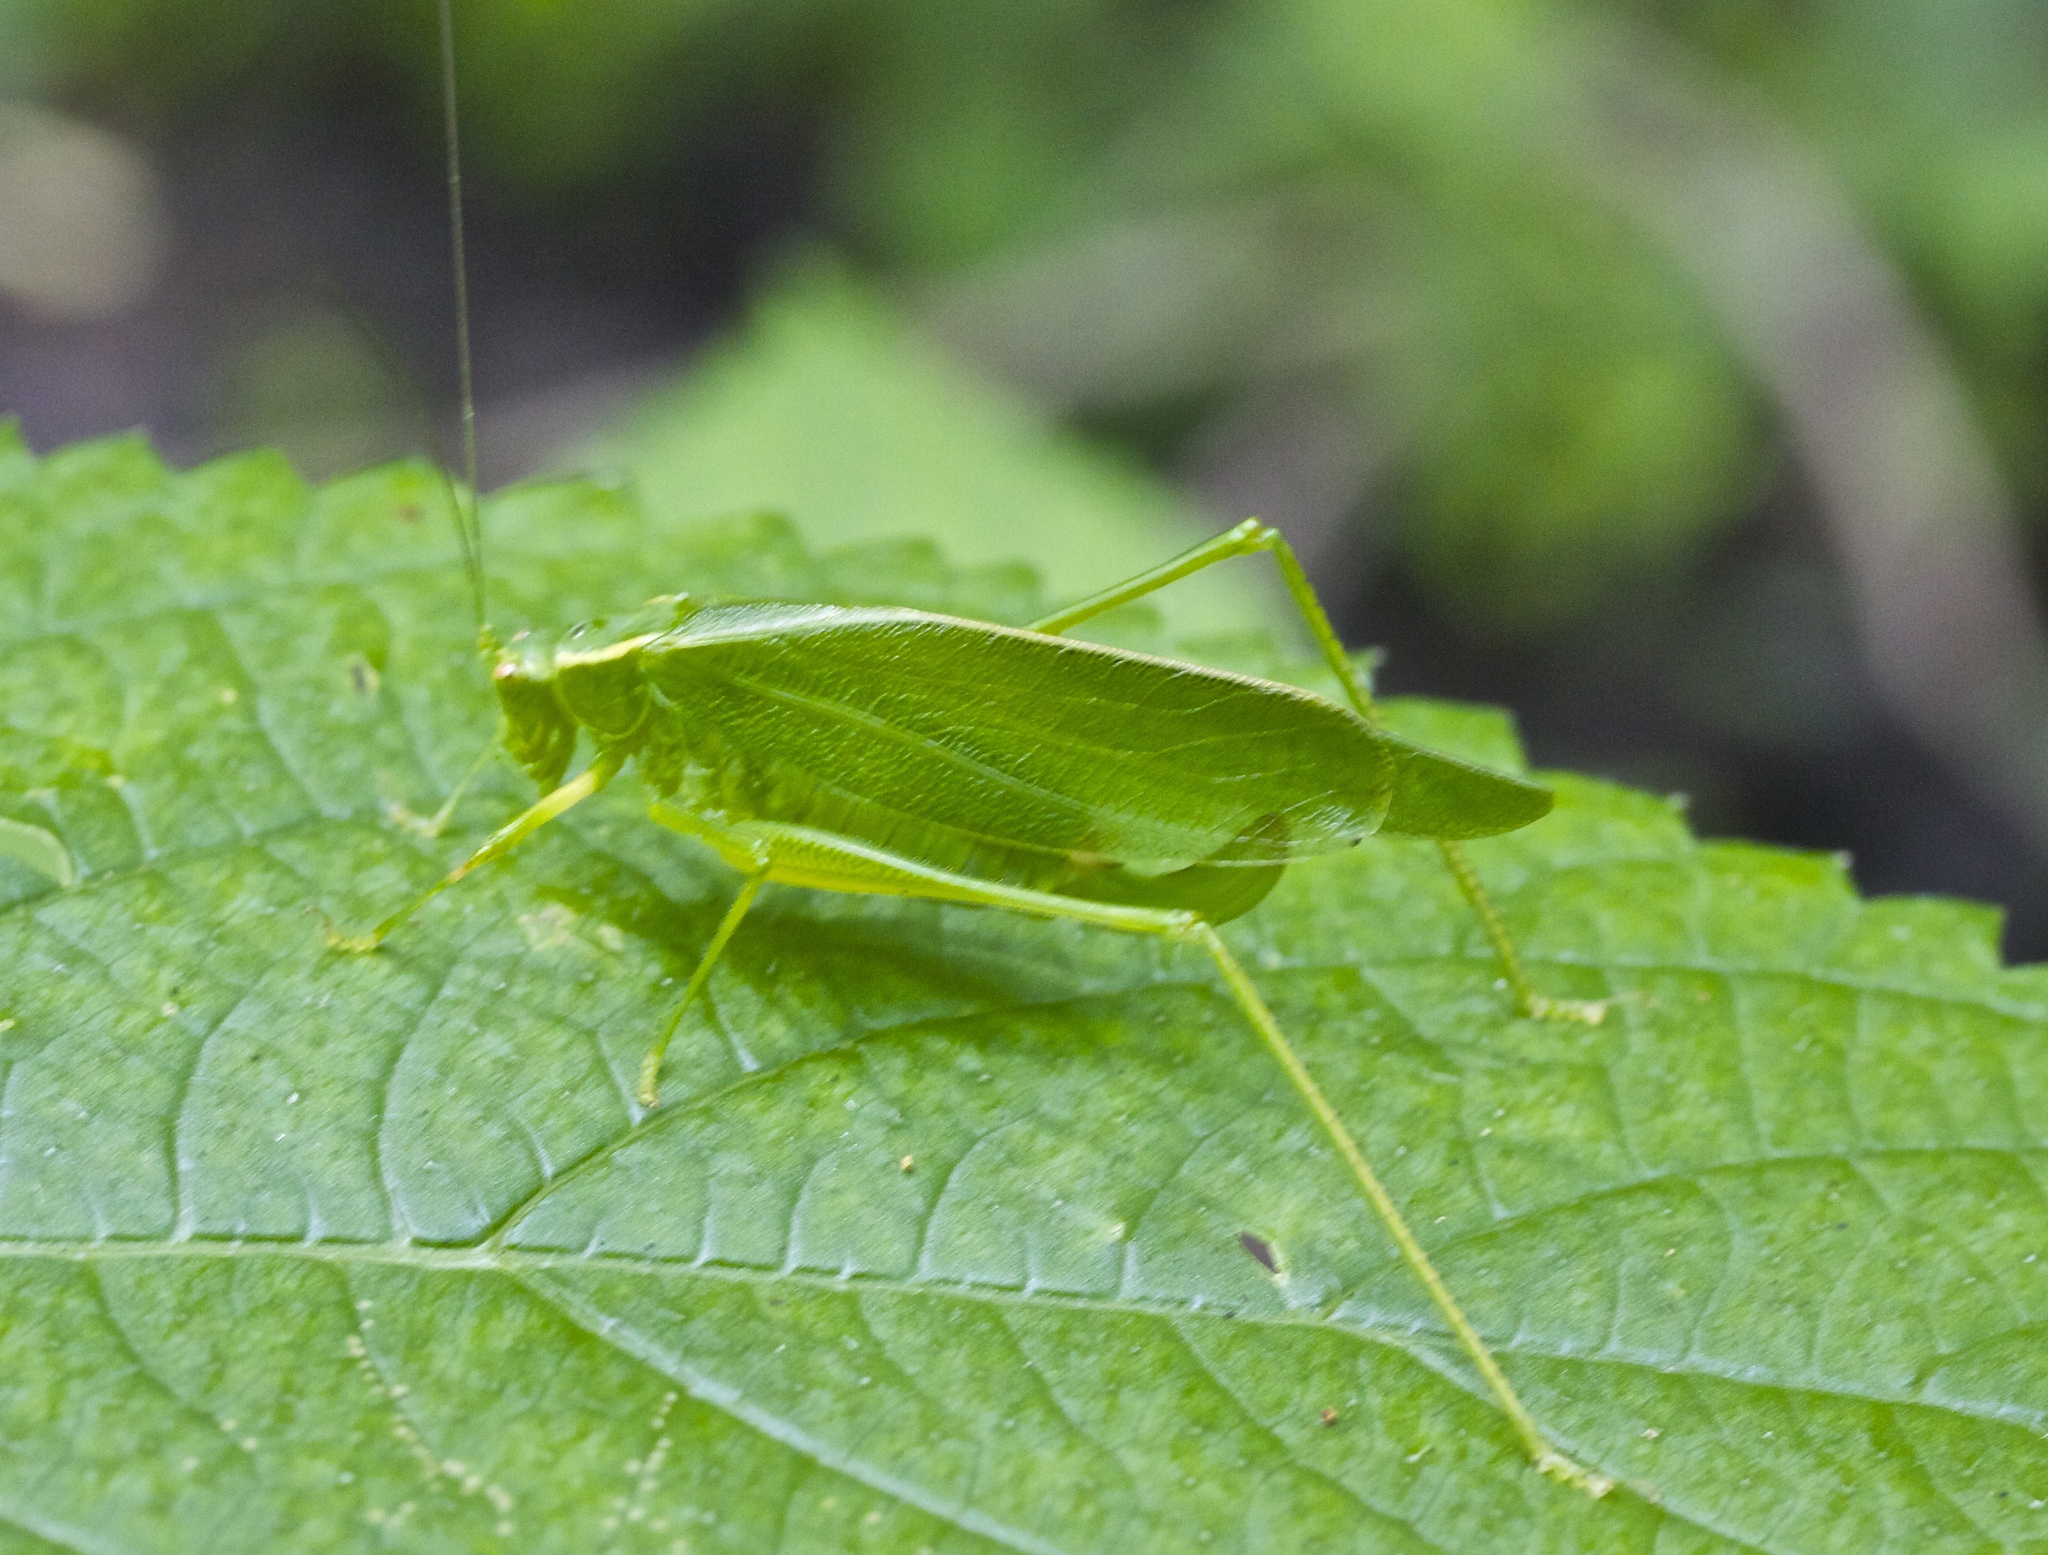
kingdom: Animalia
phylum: Arthropoda
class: Insecta
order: Orthoptera
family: Tettigoniidae
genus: Scudderia
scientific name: Scudderia septentrionalis
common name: Northern bush-katydid
